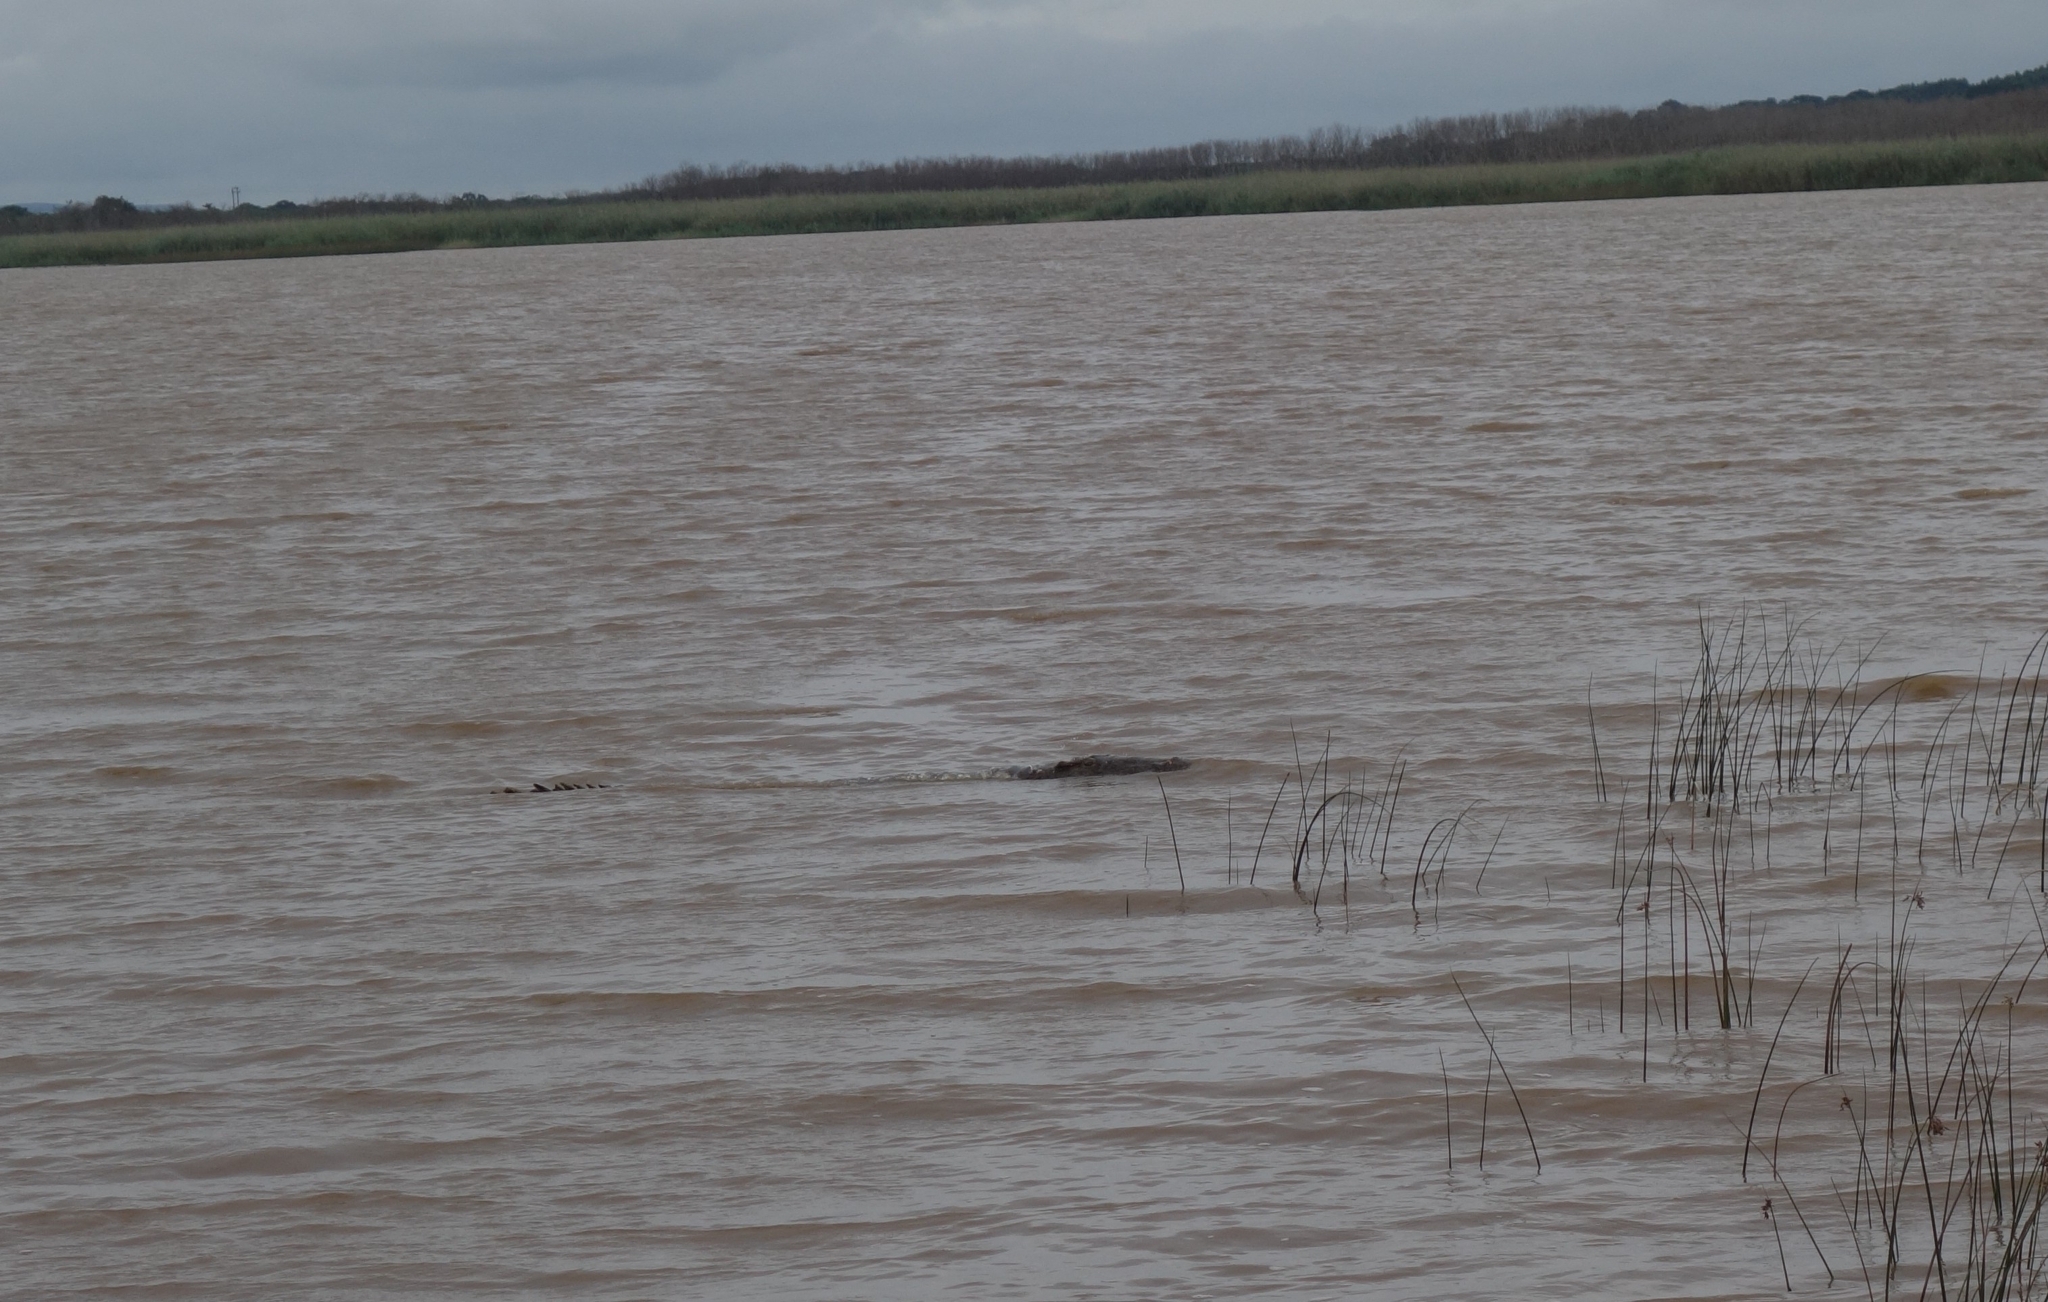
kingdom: Animalia
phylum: Chordata
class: Crocodylia
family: Crocodylidae
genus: Crocodylus
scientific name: Crocodylus niloticus
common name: Nile crocodile
